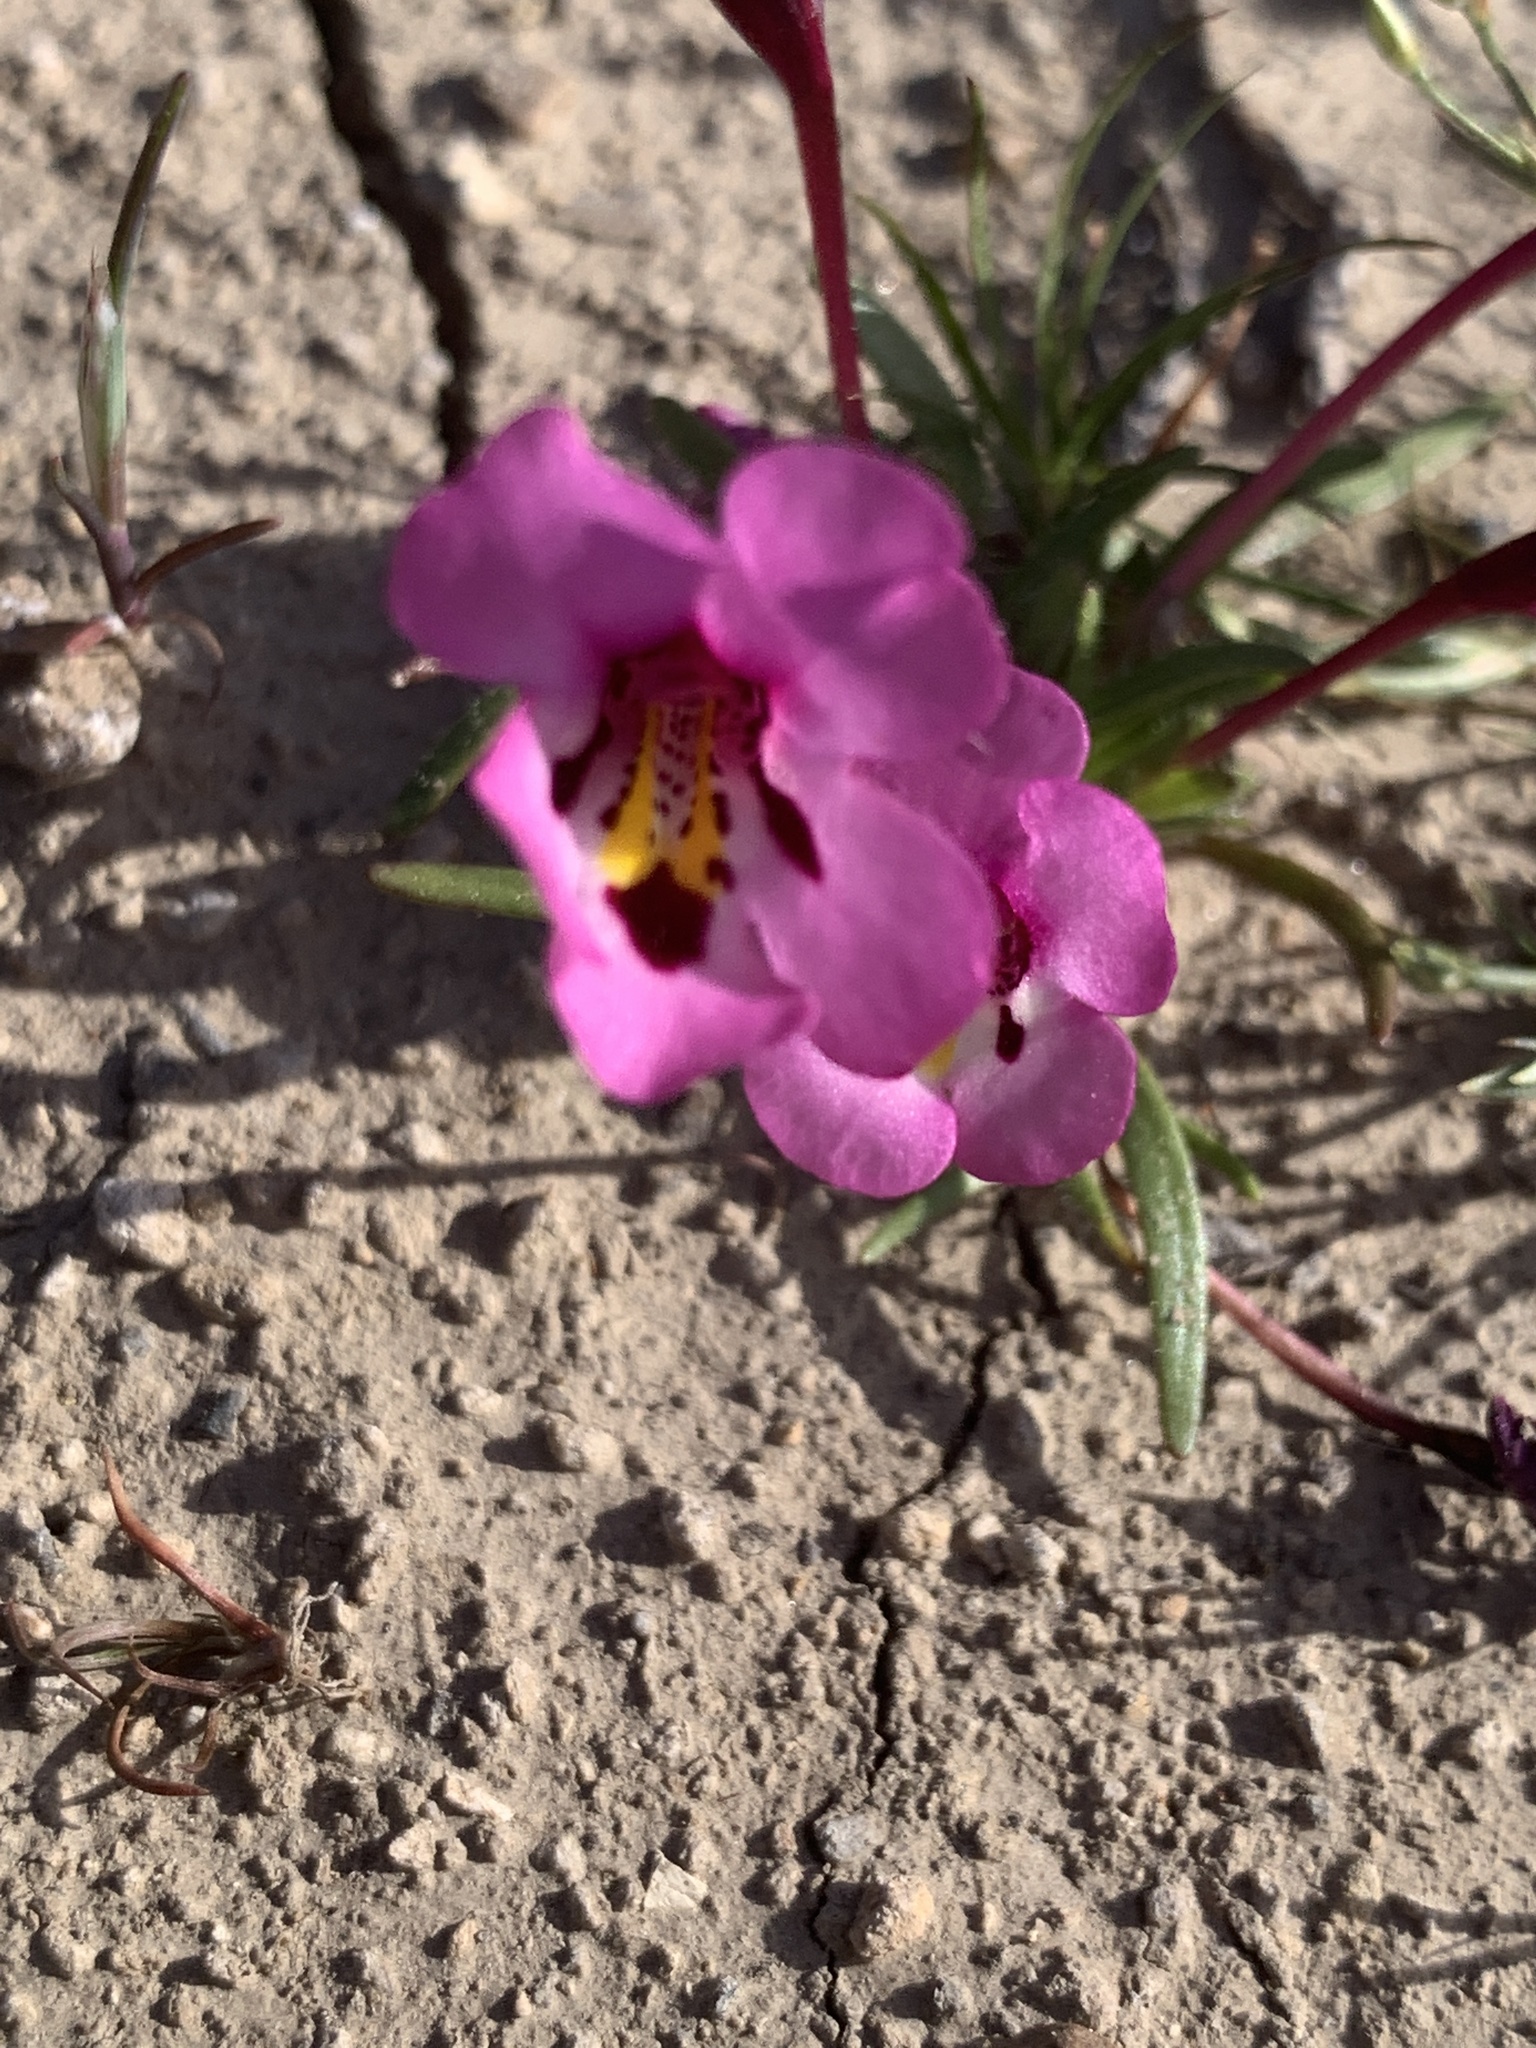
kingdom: Plantae
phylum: Tracheophyta
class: Magnoliopsida
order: Lamiales
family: Phrymaceae
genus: Diplacus
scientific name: Diplacus angustatus
